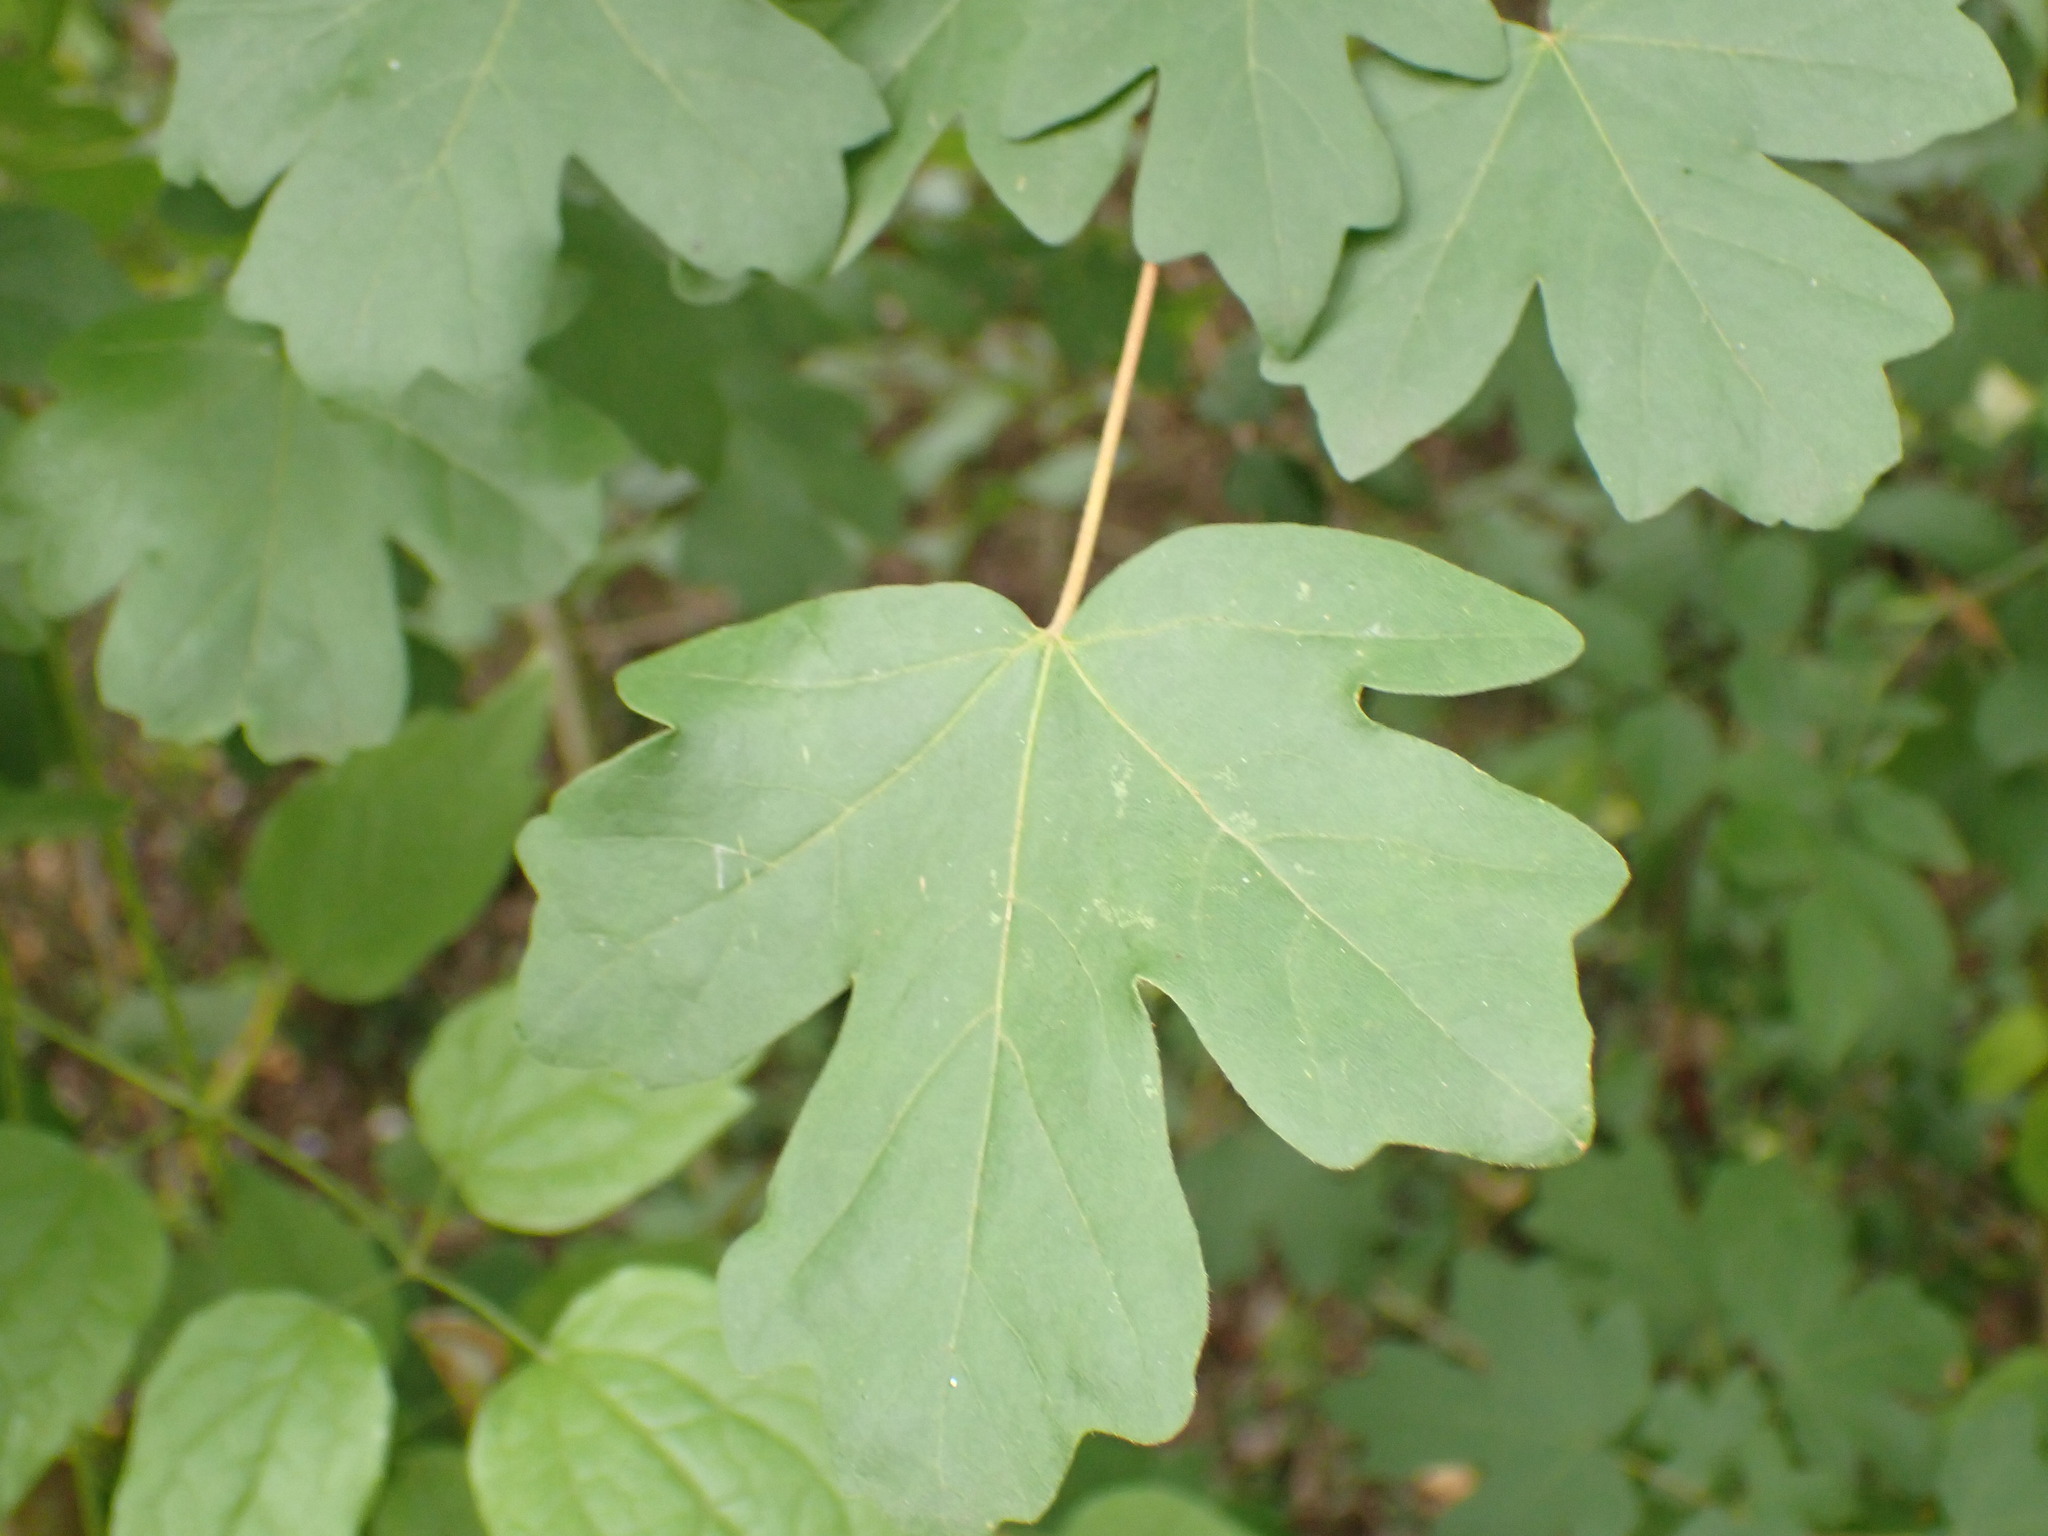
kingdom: Plantae
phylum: Tracheophyta
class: Magnoliopsida
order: Sapindales
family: Sapindaceae
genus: Acer
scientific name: Acer campestre
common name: Field maple
